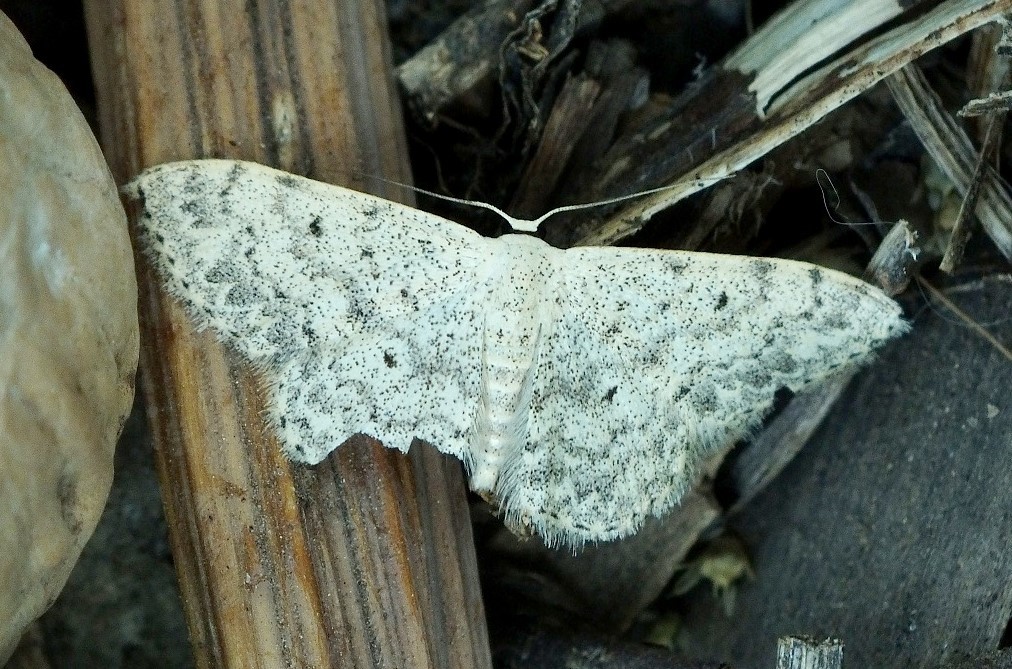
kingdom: Animalia
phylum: Arthropoda
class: Insecta
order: Lepidoptera
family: Geometridae
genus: Scopula
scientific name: Scopula marginepunctata
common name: Mullein wave
